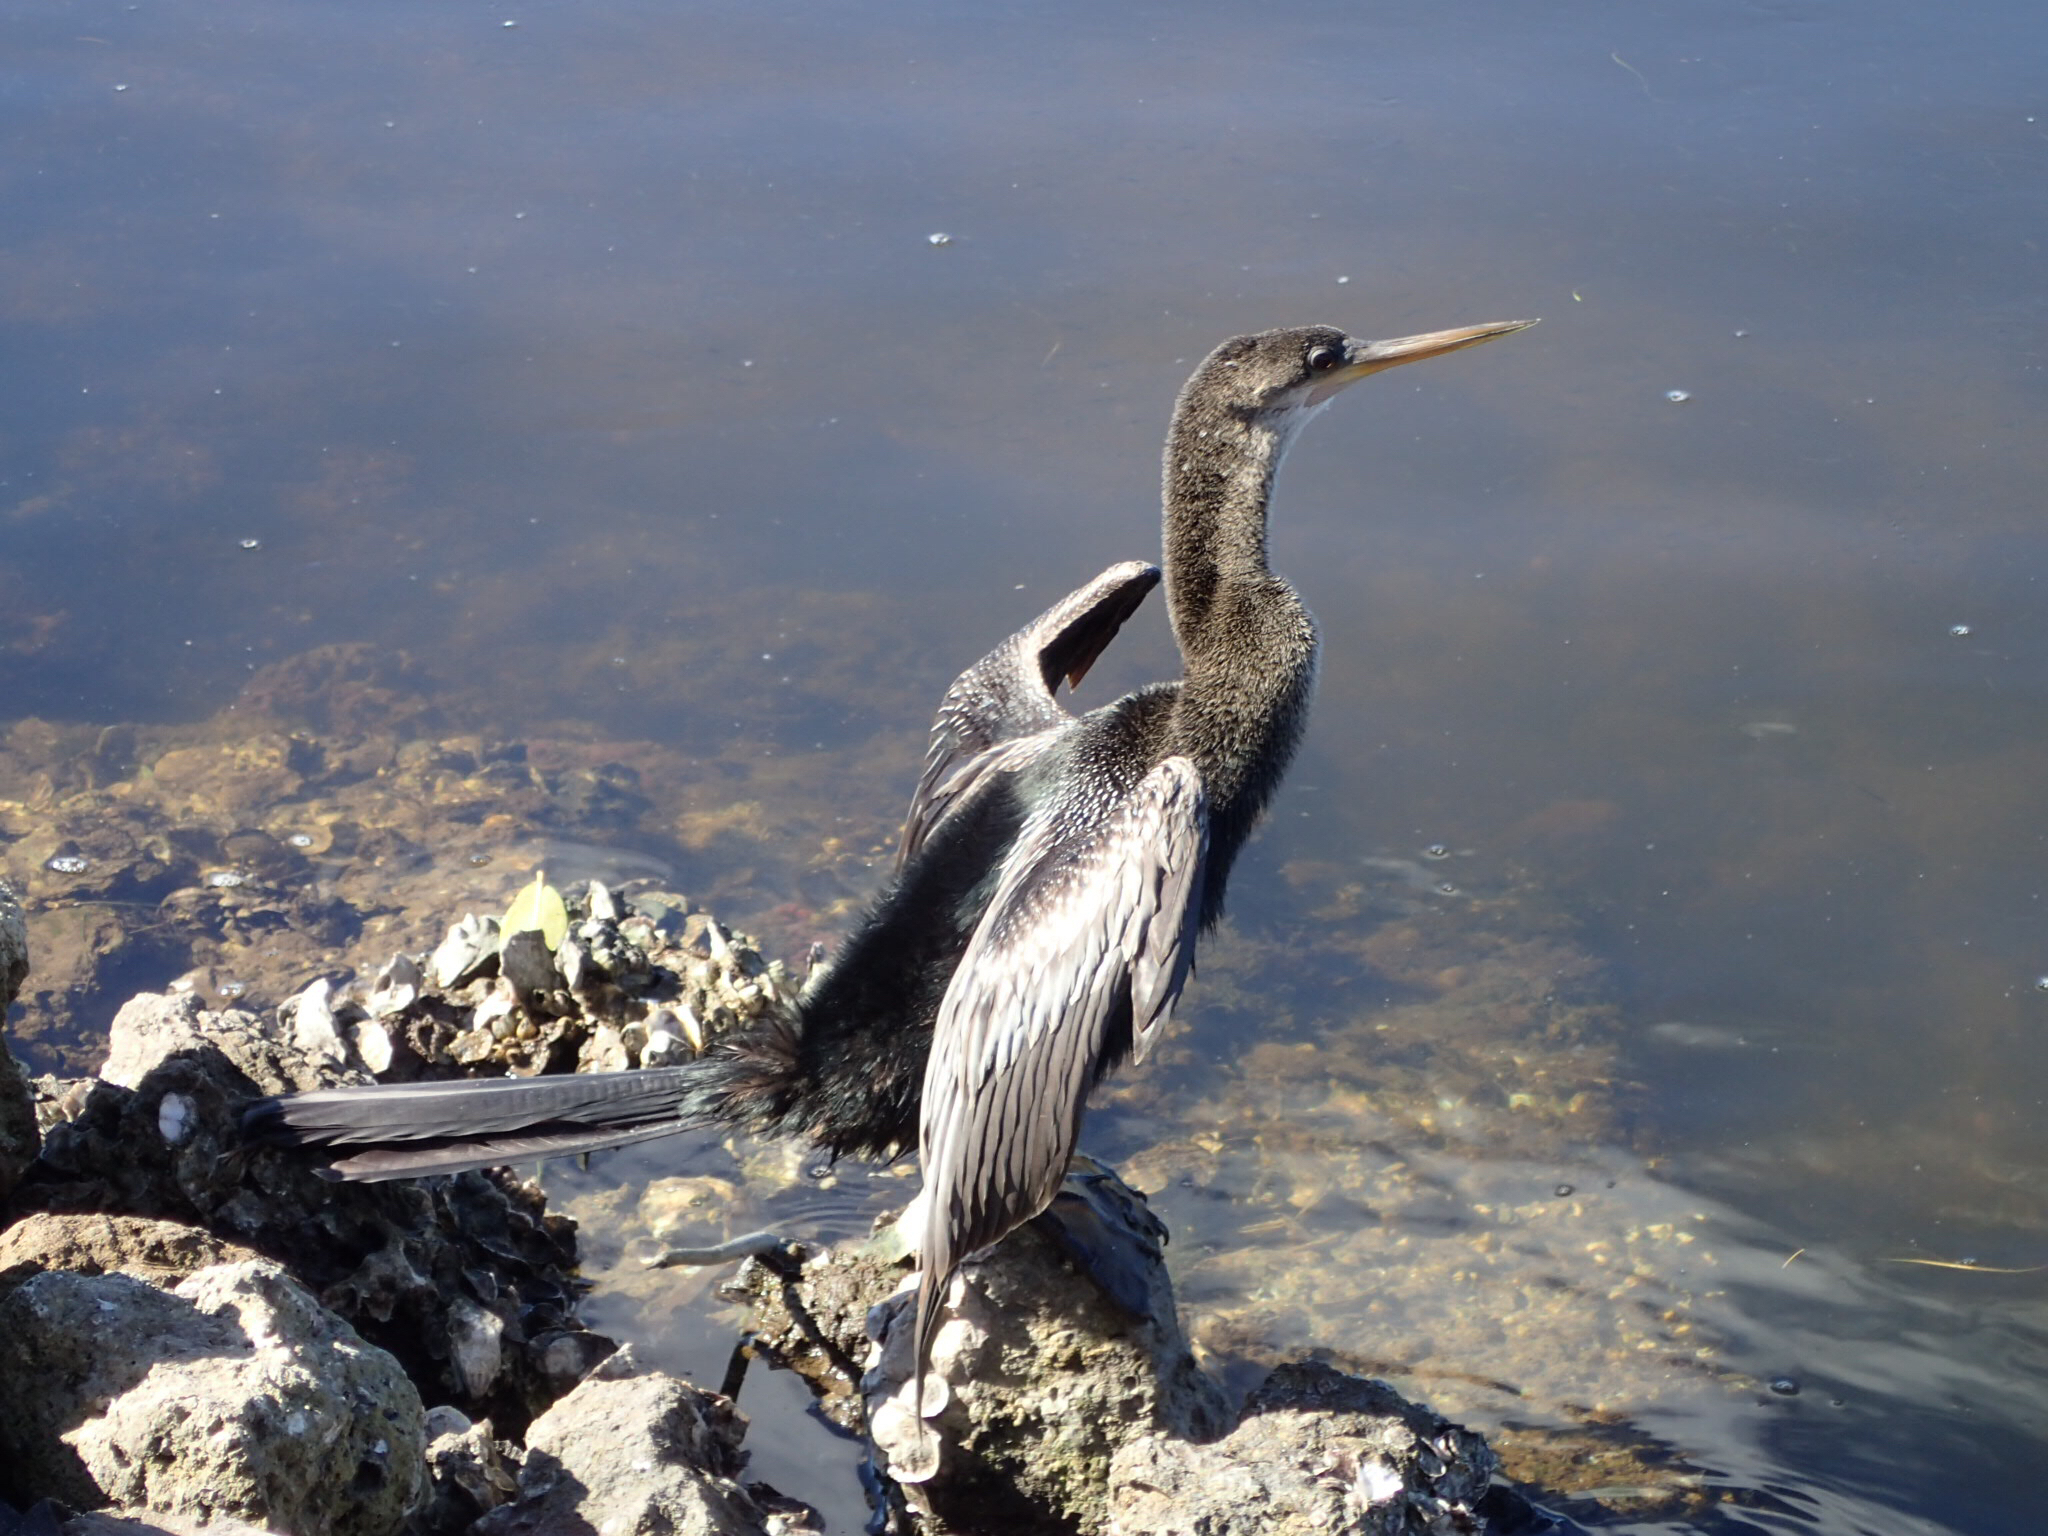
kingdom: Animalia
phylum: Chordata
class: Aves
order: Suliformes
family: Anhingidae
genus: Anhinga
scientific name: Anhinga anhinga
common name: Anhinga
